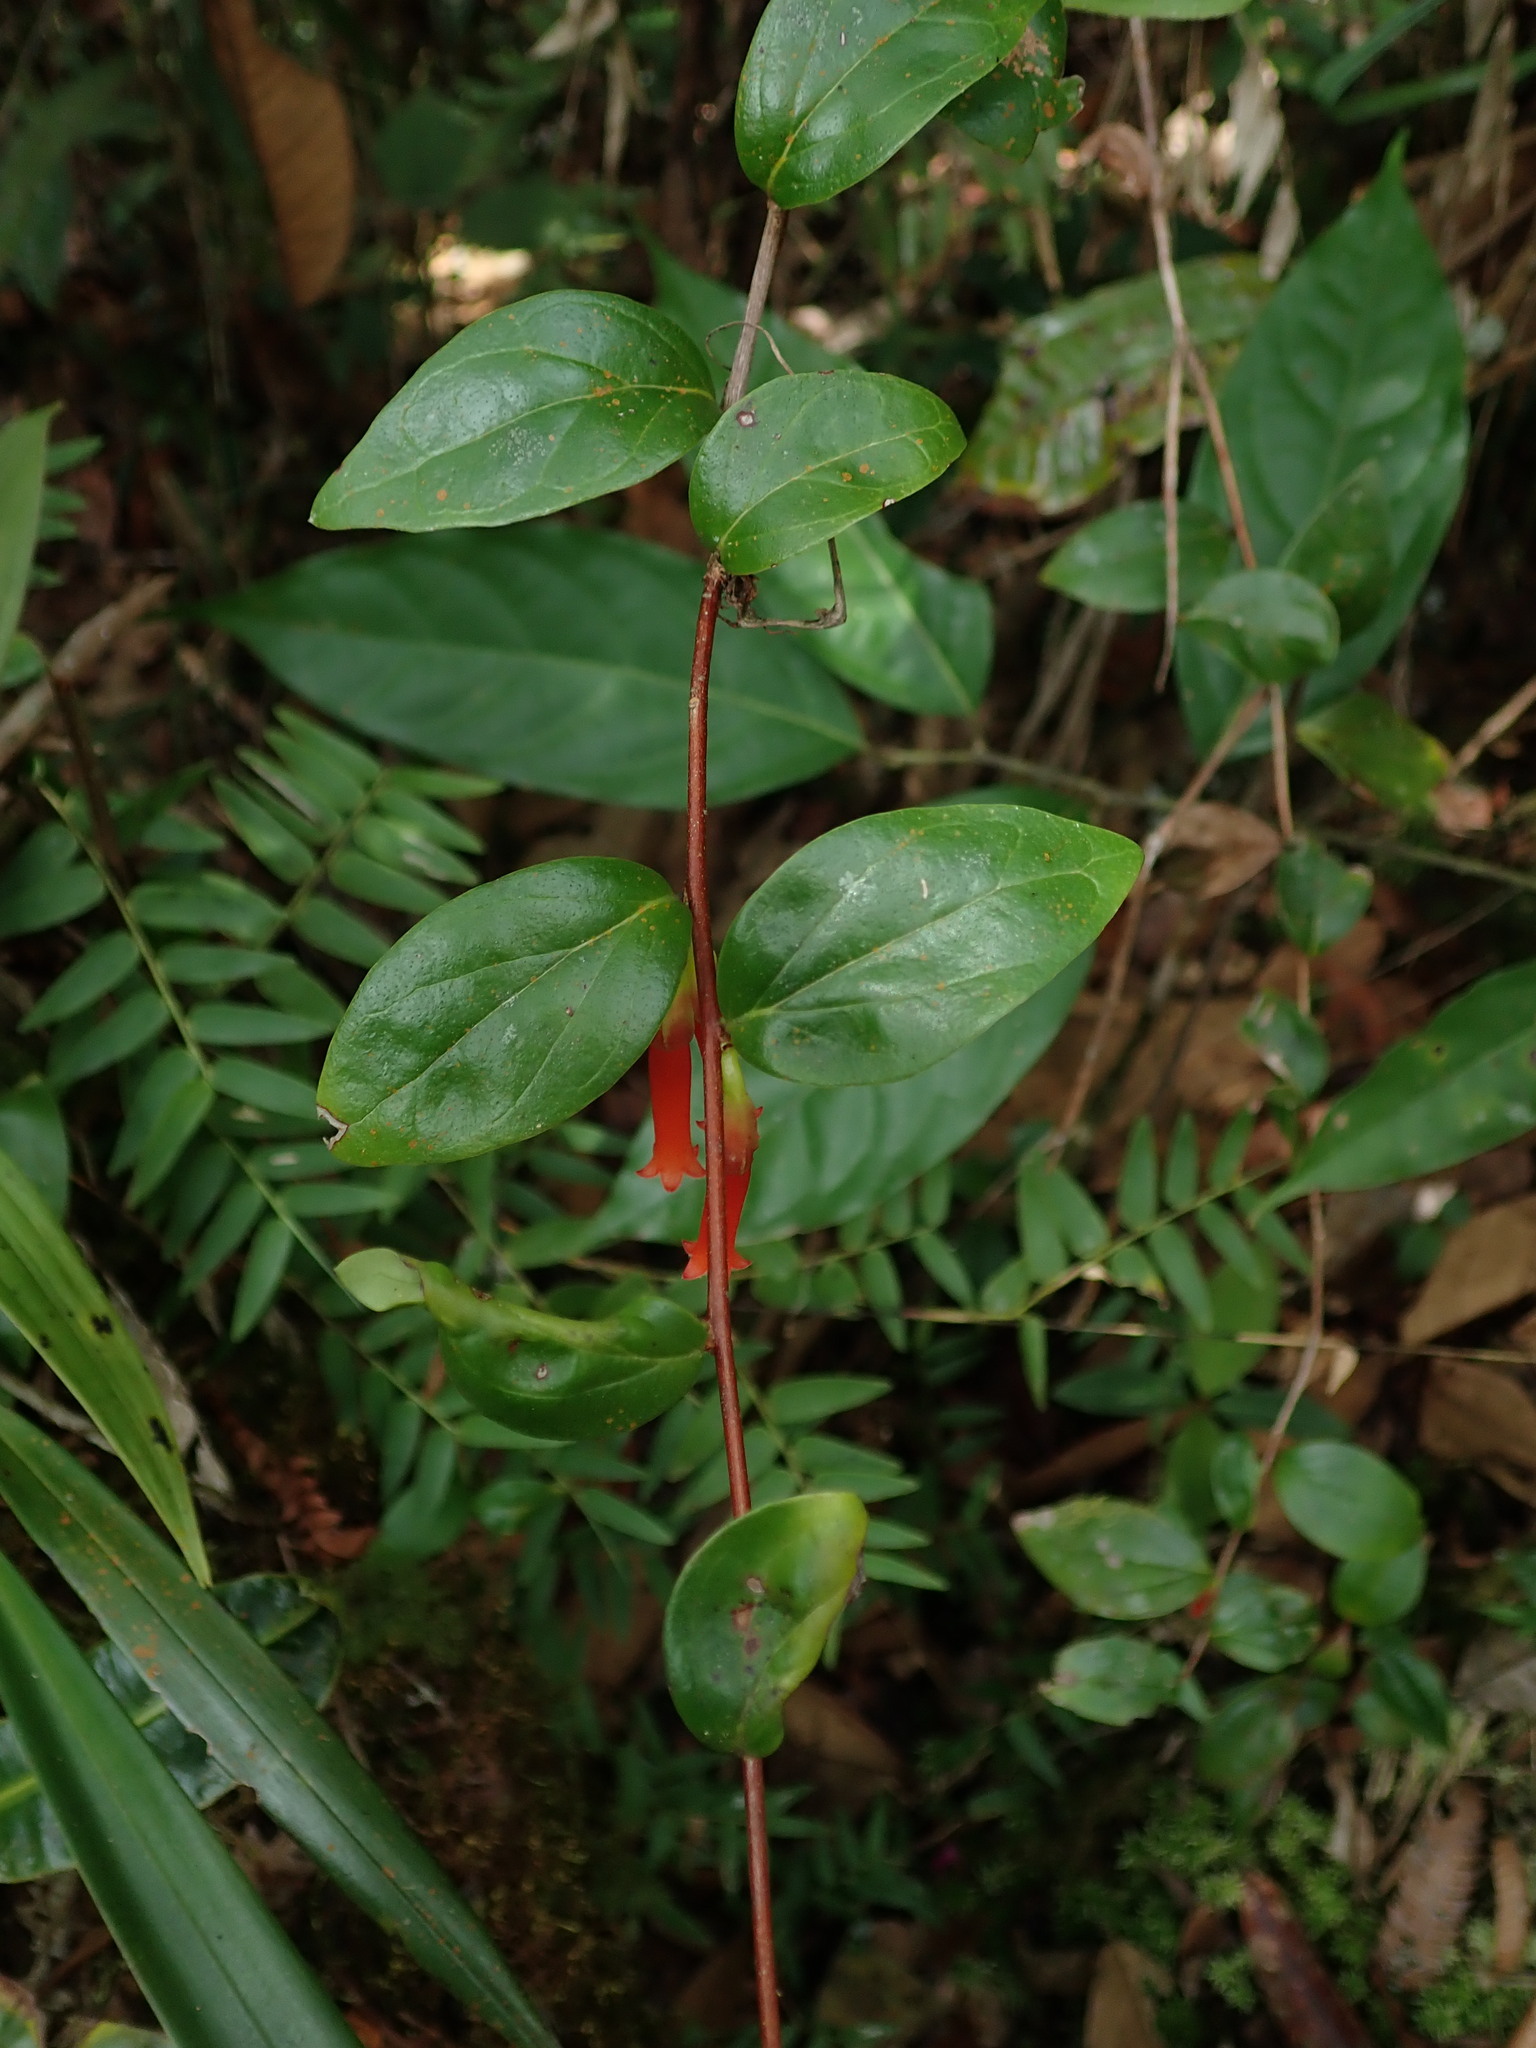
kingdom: Plantae
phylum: Tracheophyta
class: Magnoliopsida
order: Ericales
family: Ericaceae
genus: Macleania
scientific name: Macleania bullata
